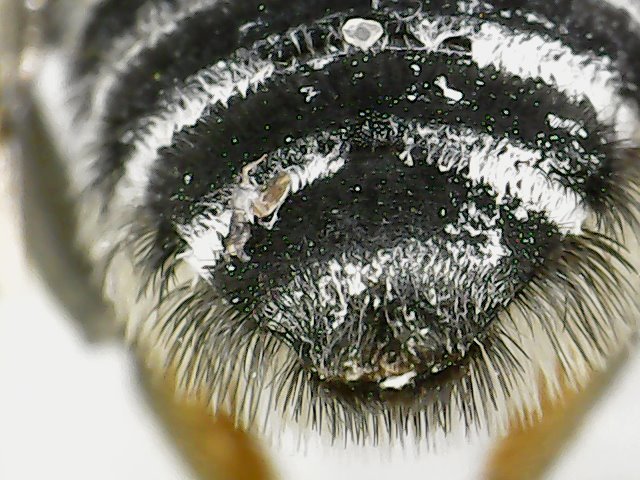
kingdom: Animalia
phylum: Arthropoda
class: Insecta
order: Hymenoptera
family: Megachilidae
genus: Megachile
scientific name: Megachile texana
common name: Texas leafcutter
